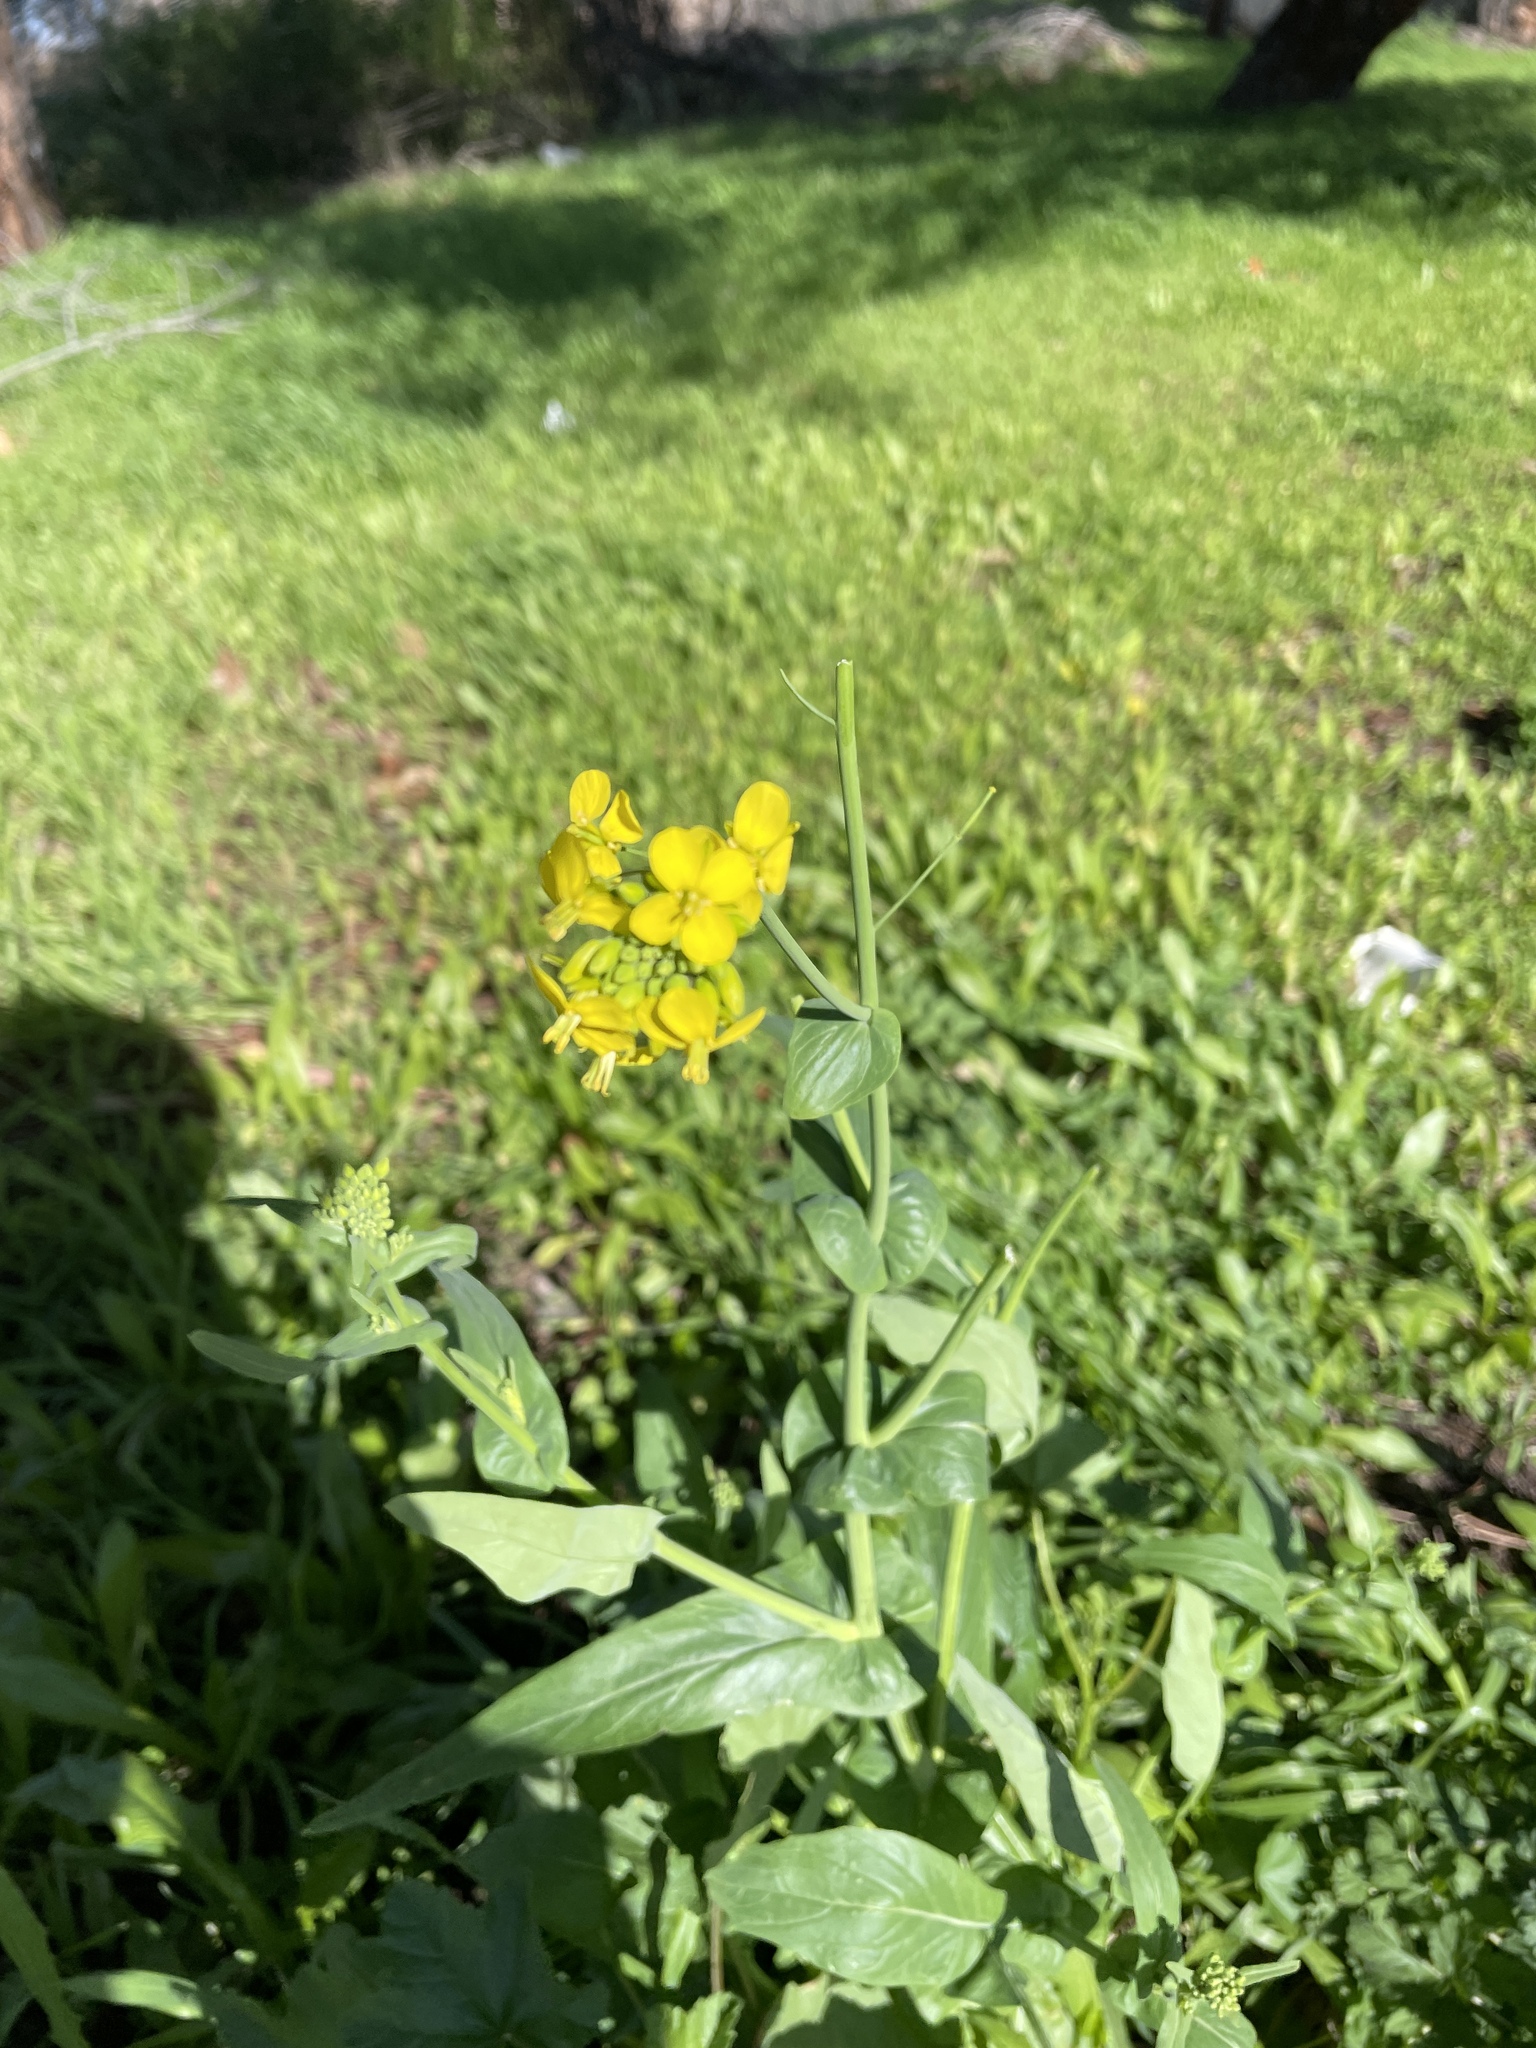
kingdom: Plantae
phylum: Tracheophyta
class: Magnoliopsida
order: Brassicales
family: Brassicaceae
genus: Brassica
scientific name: Brassica rapa
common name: Field mustard
